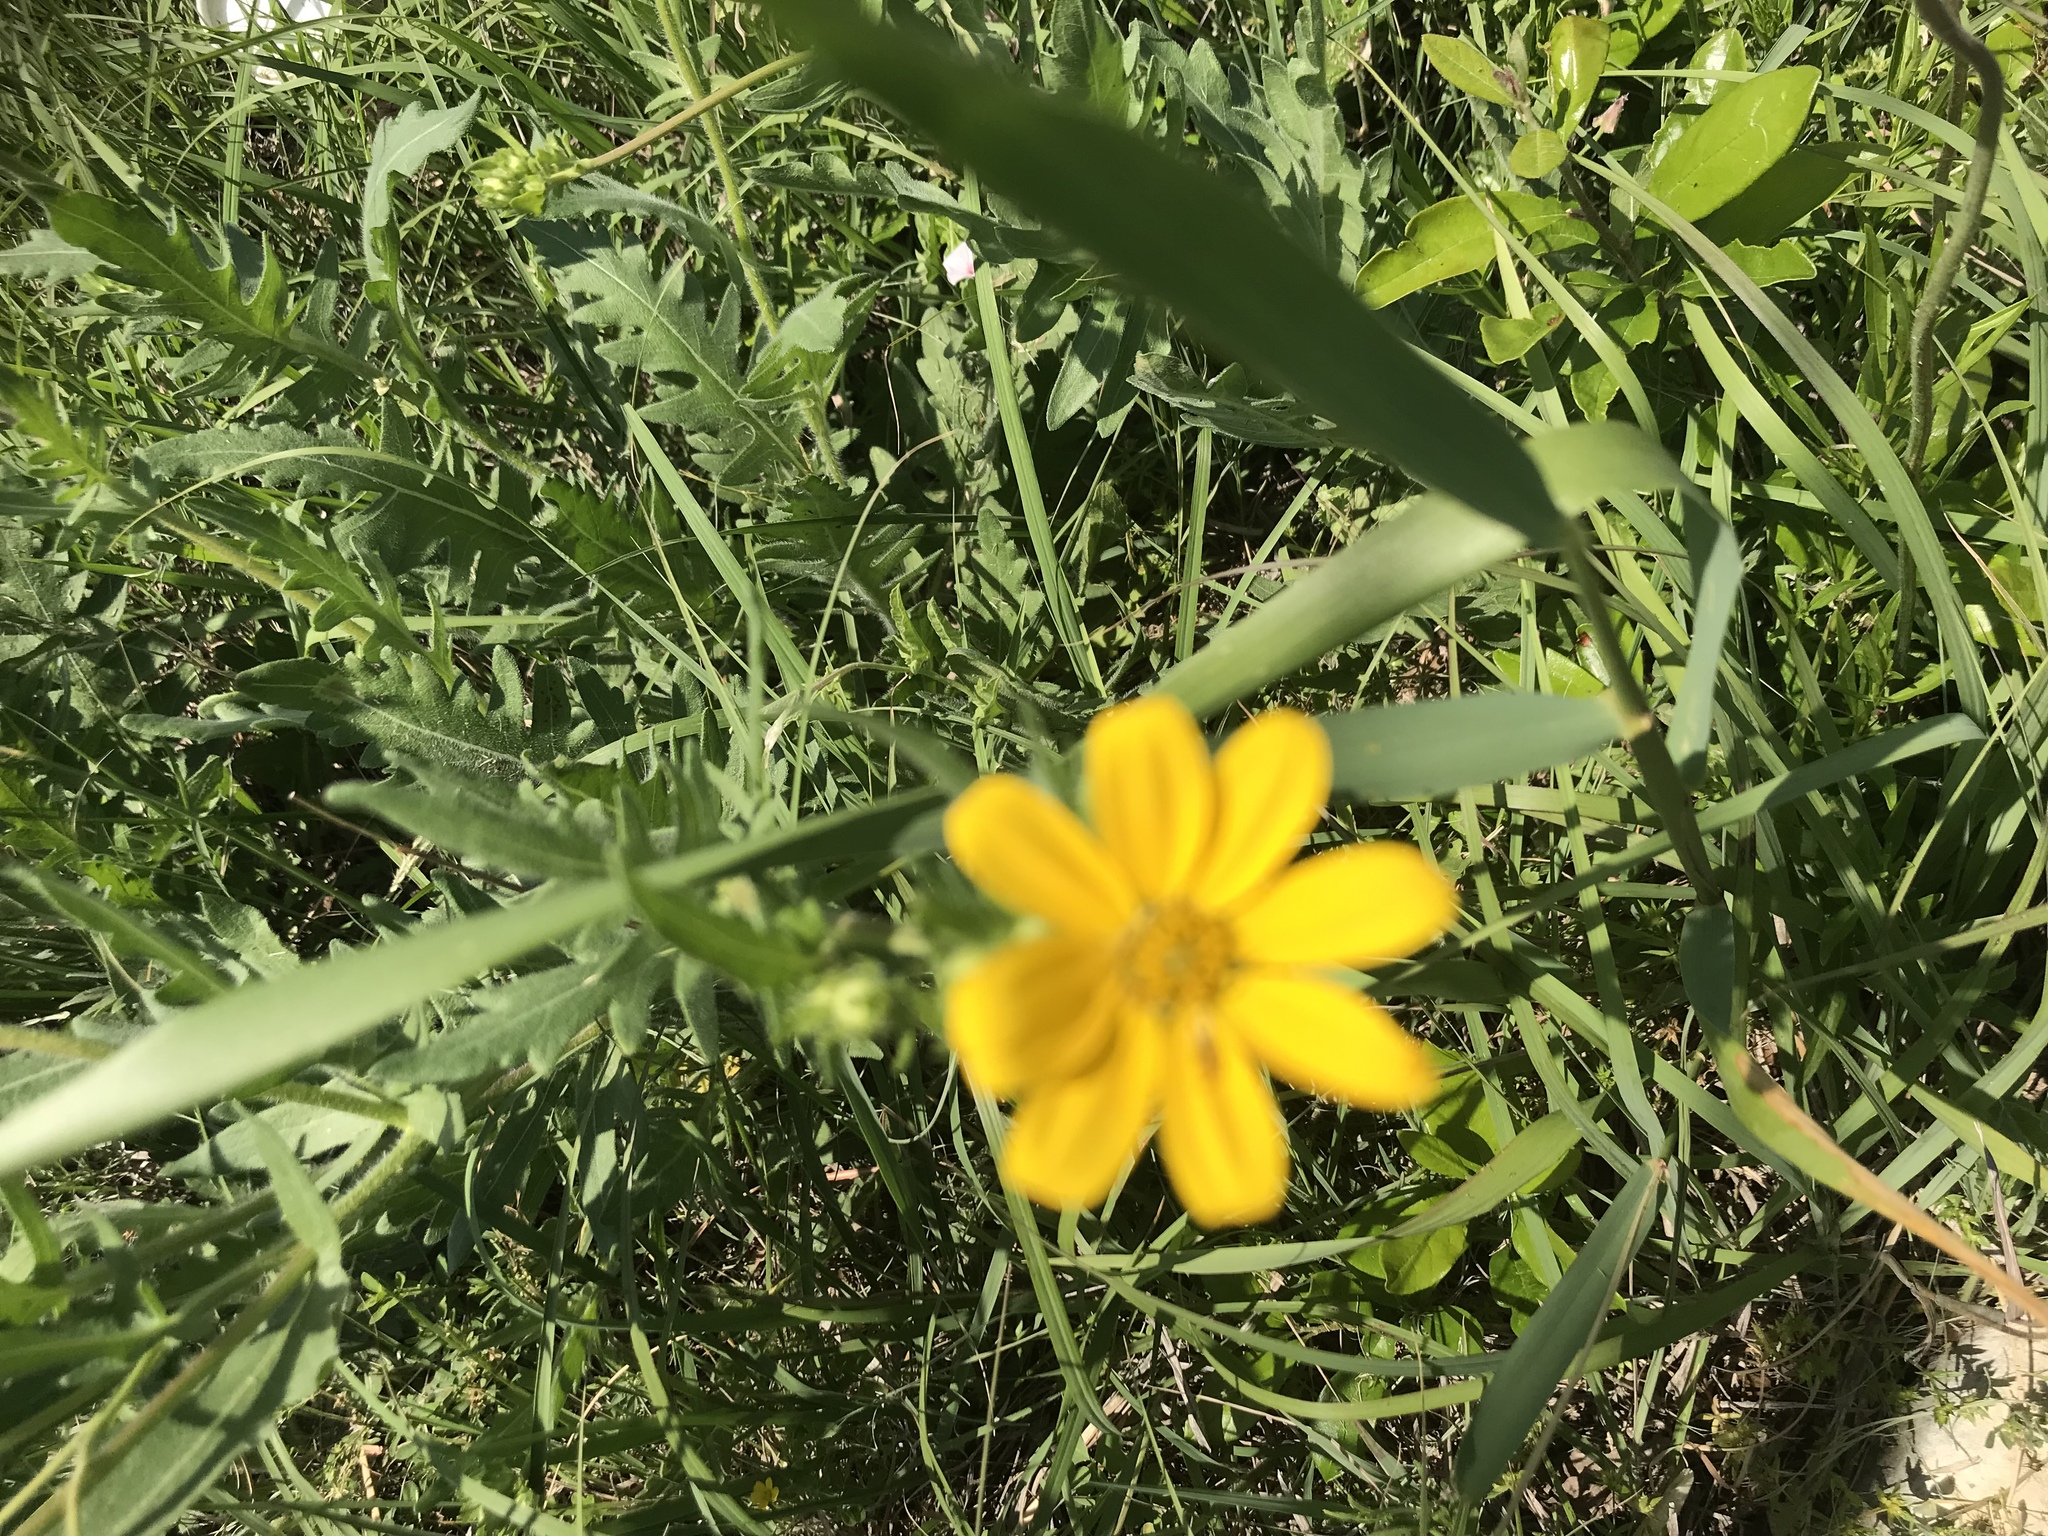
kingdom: Plantae
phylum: Tracheophyta
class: Magnoliopsida
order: Asterales
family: Asteraceae
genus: Engelmannia
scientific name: Engelmannia peristenia
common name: Engelmann's daisy
